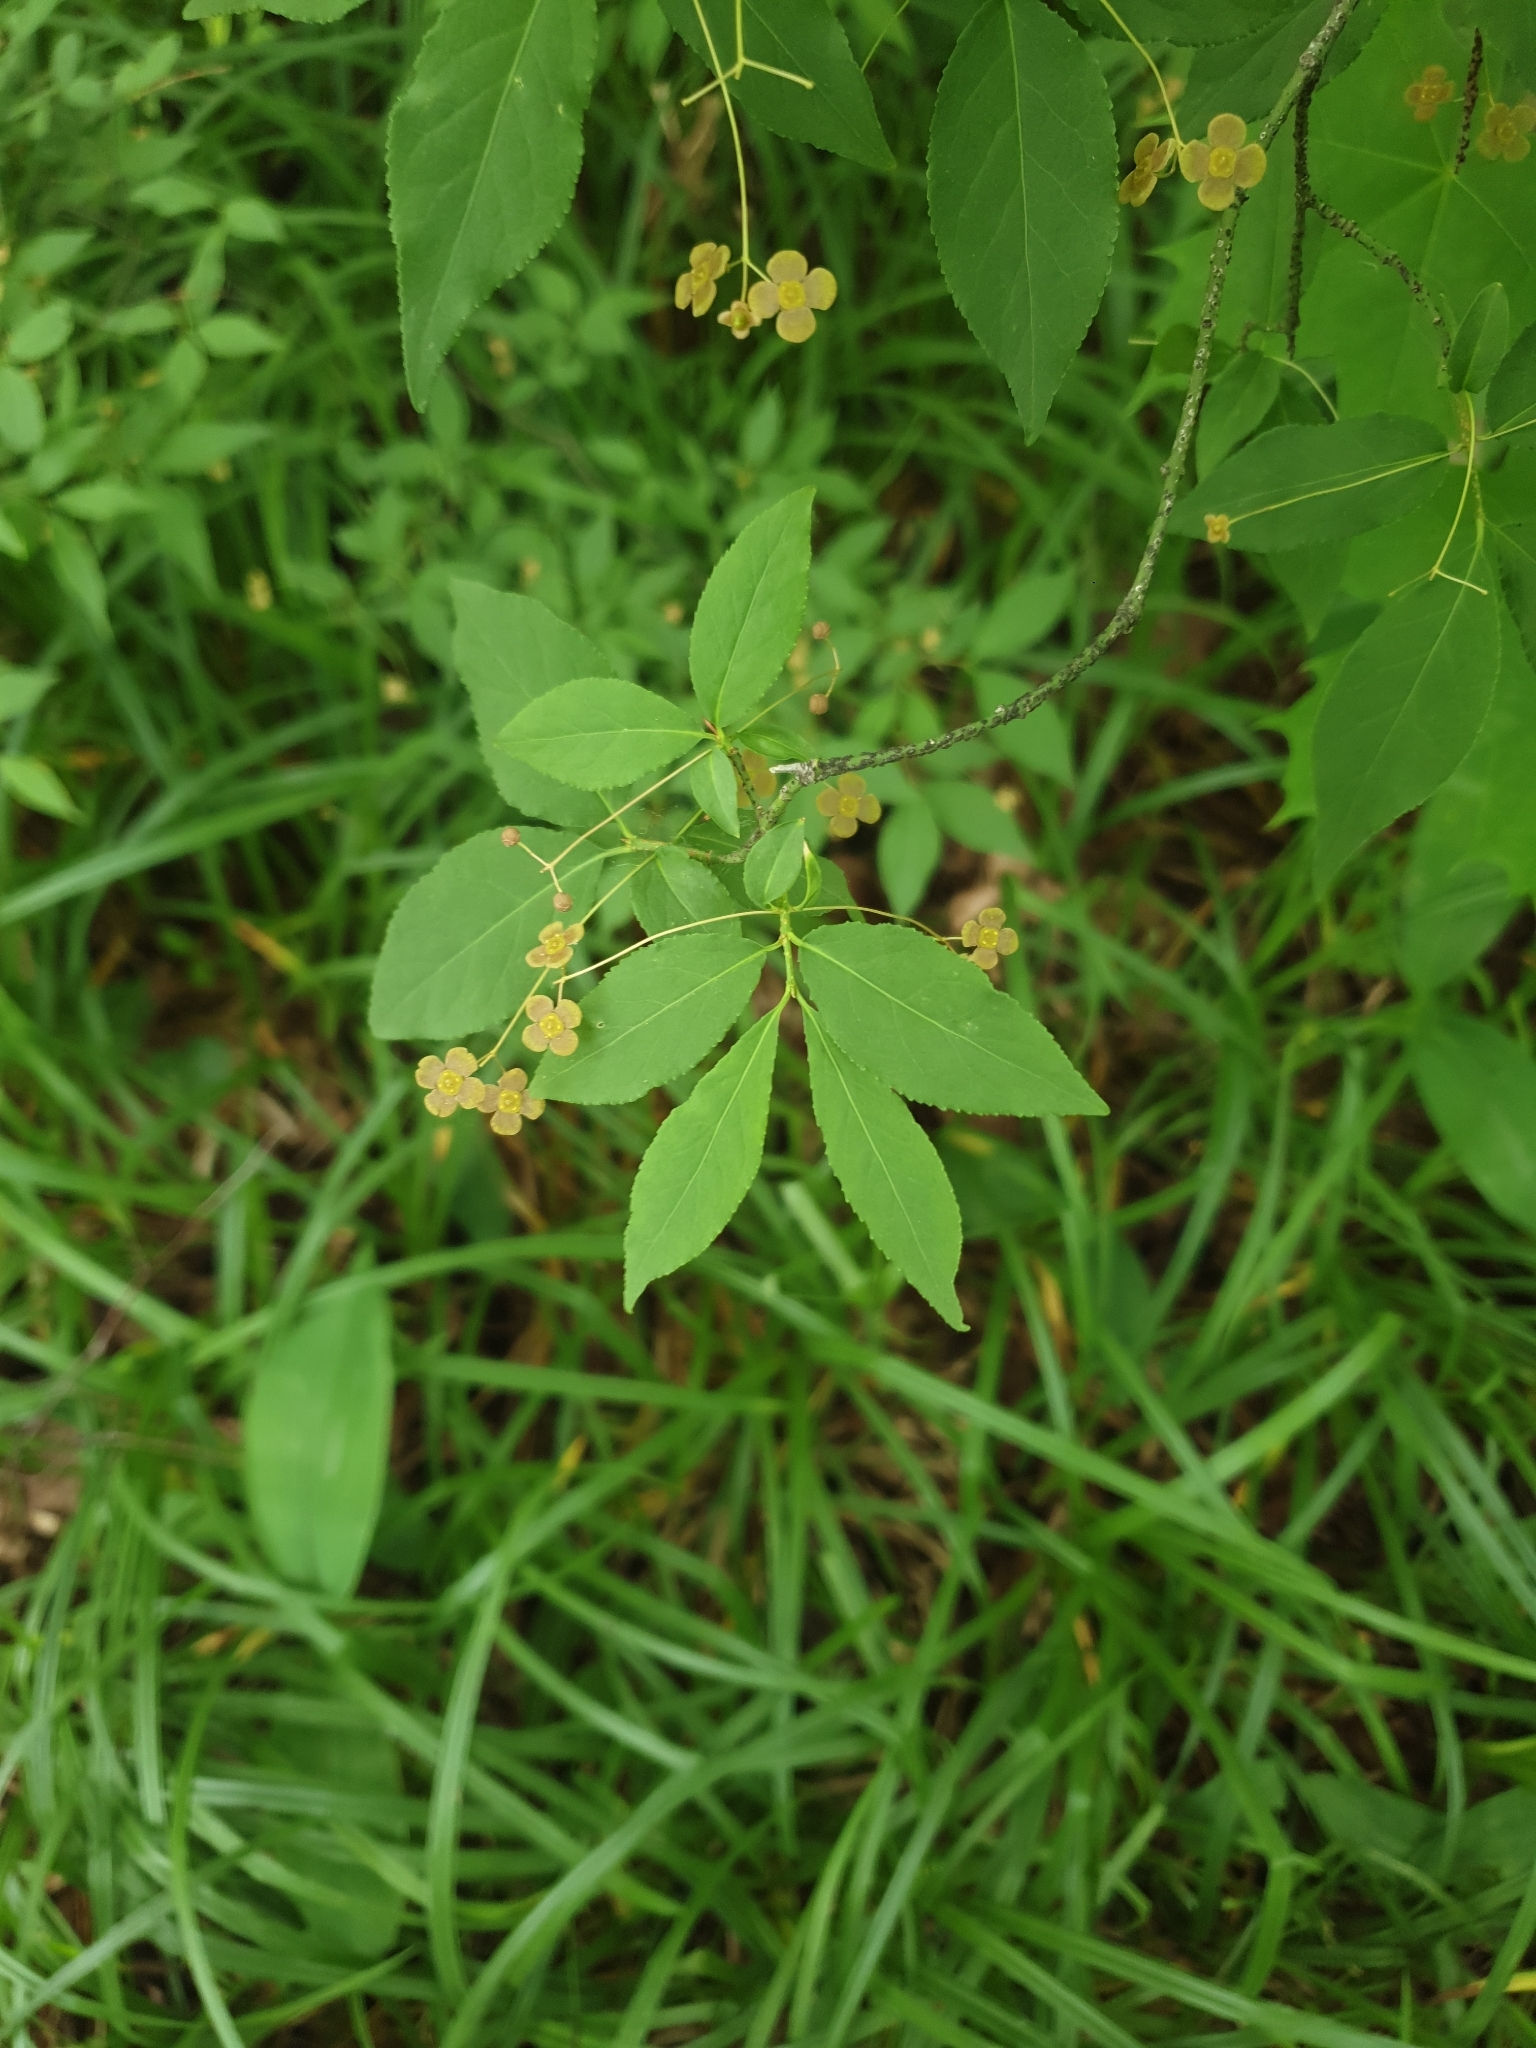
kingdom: Plantae
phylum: Tracheophyta
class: Magnoliopsida
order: Celastrales
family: Celastraceae
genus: Euonymus
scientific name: Euonymus verrucosus
